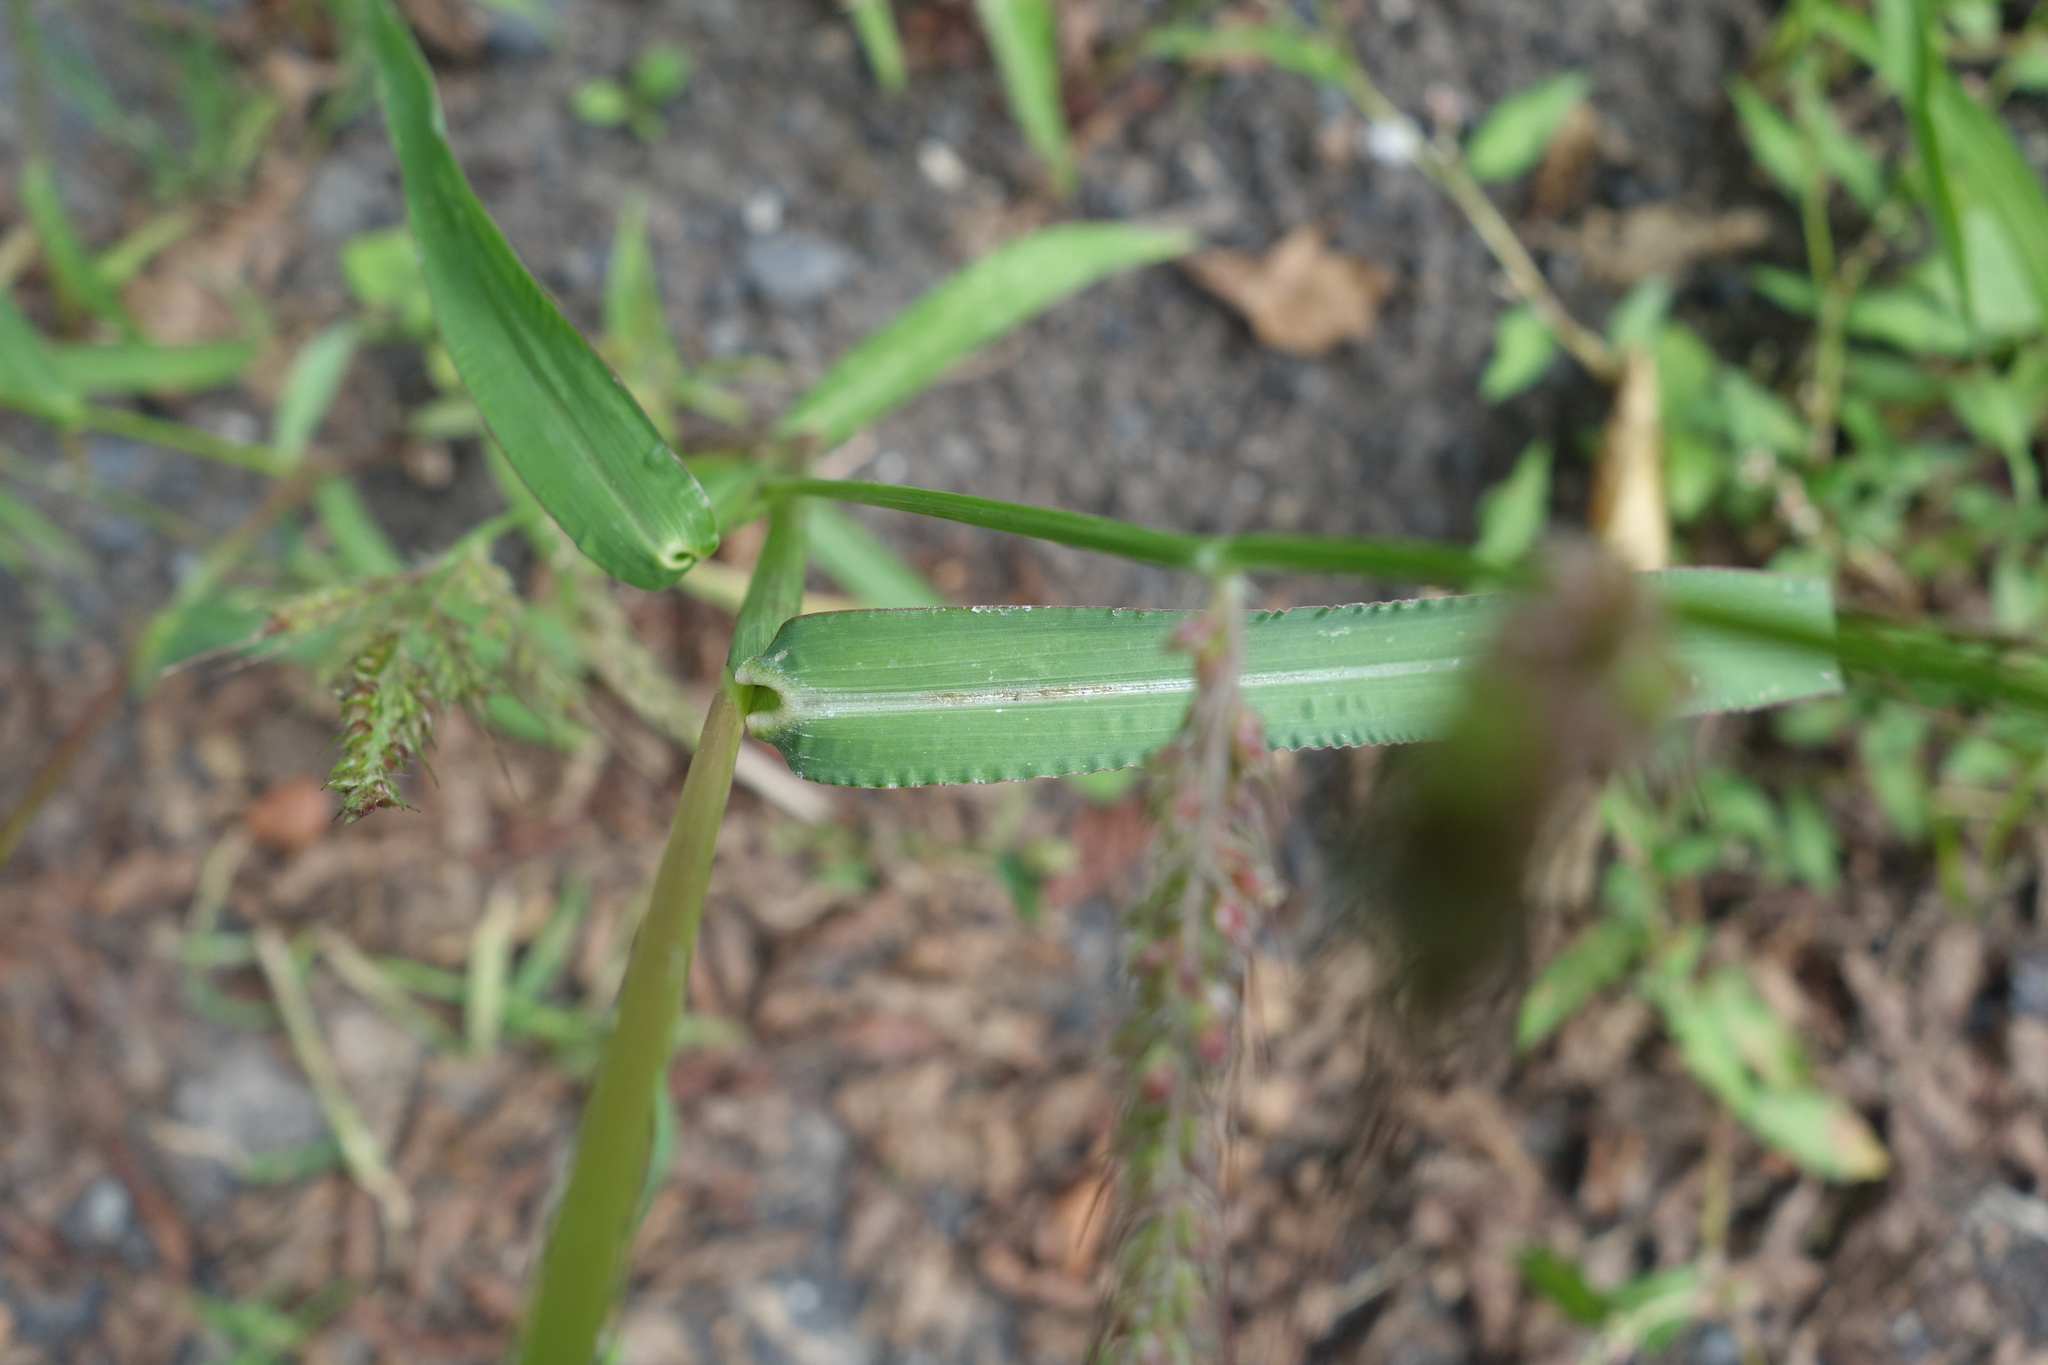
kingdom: Plantae
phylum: Tracheophyta
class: Liliopsida
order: Poales
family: Poaceae
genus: Echinochloa
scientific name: Echinochloa crus-galli
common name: Cockspur
